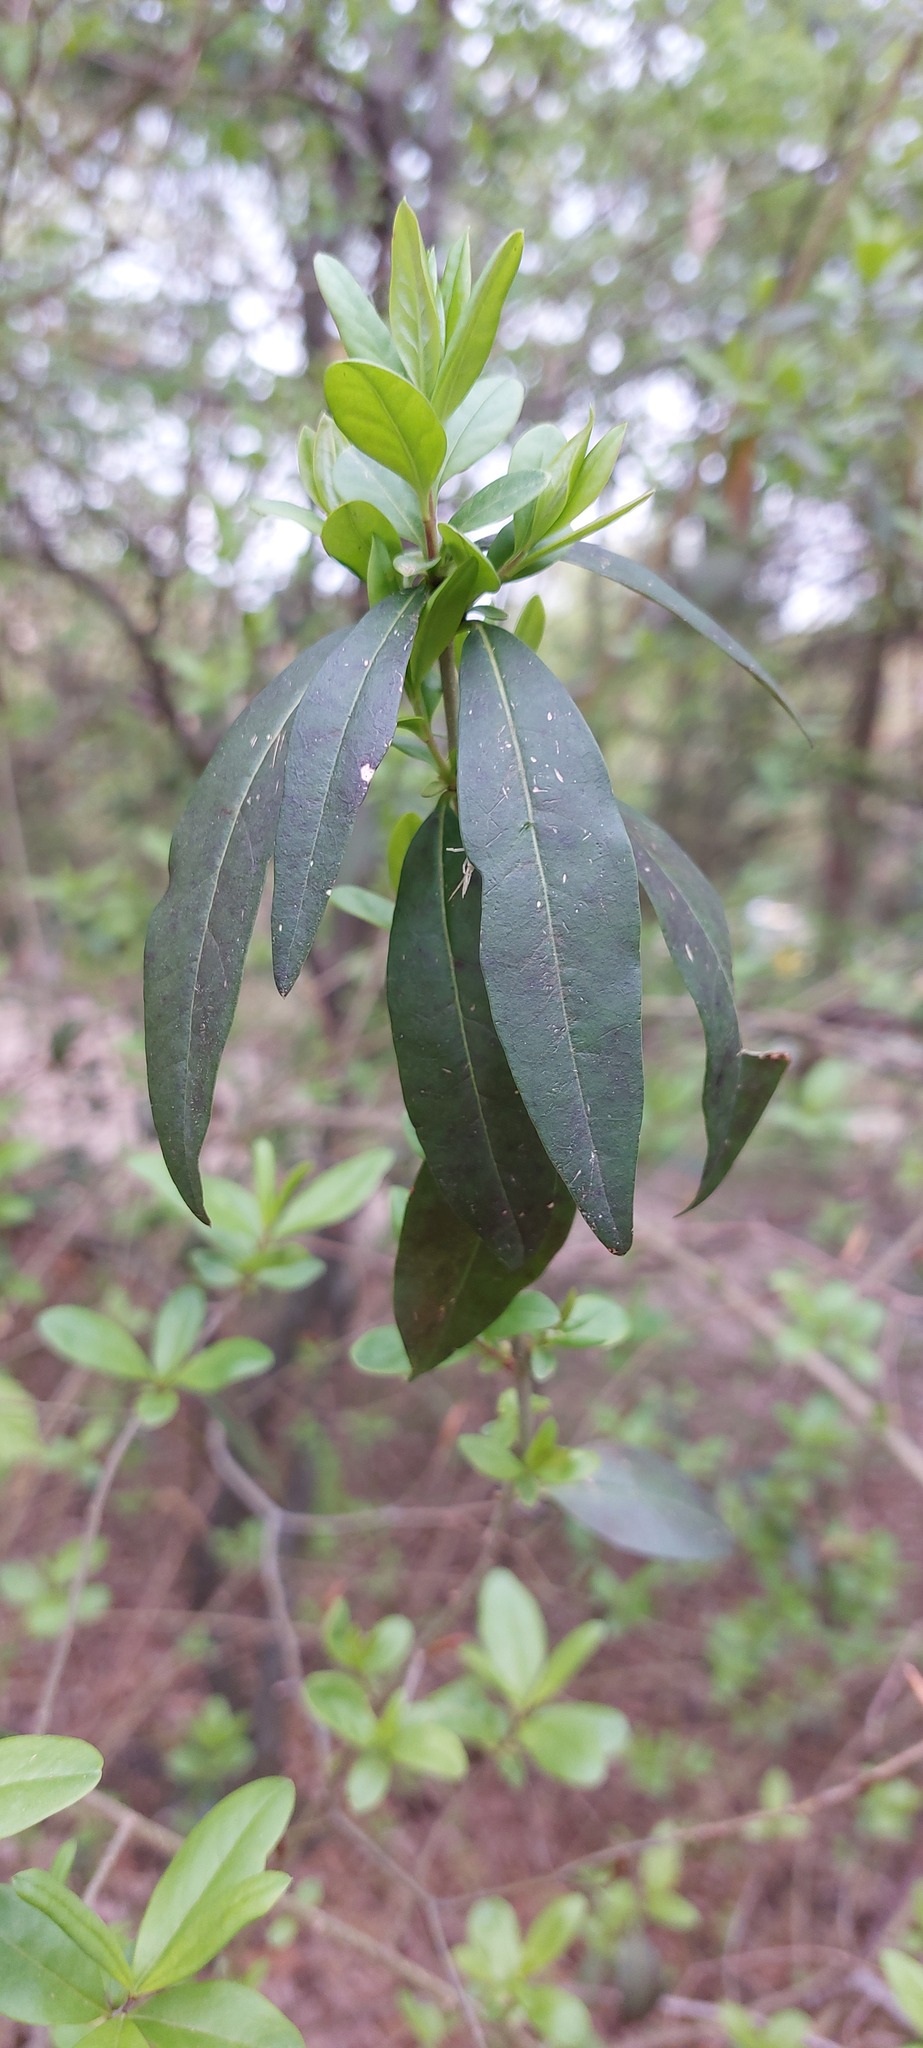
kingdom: Plantae
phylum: Tracheophyta
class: Magnoliopsida
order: Laurales
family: Lauraceae
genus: Laurus
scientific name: Laurus nobilis
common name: Bay
